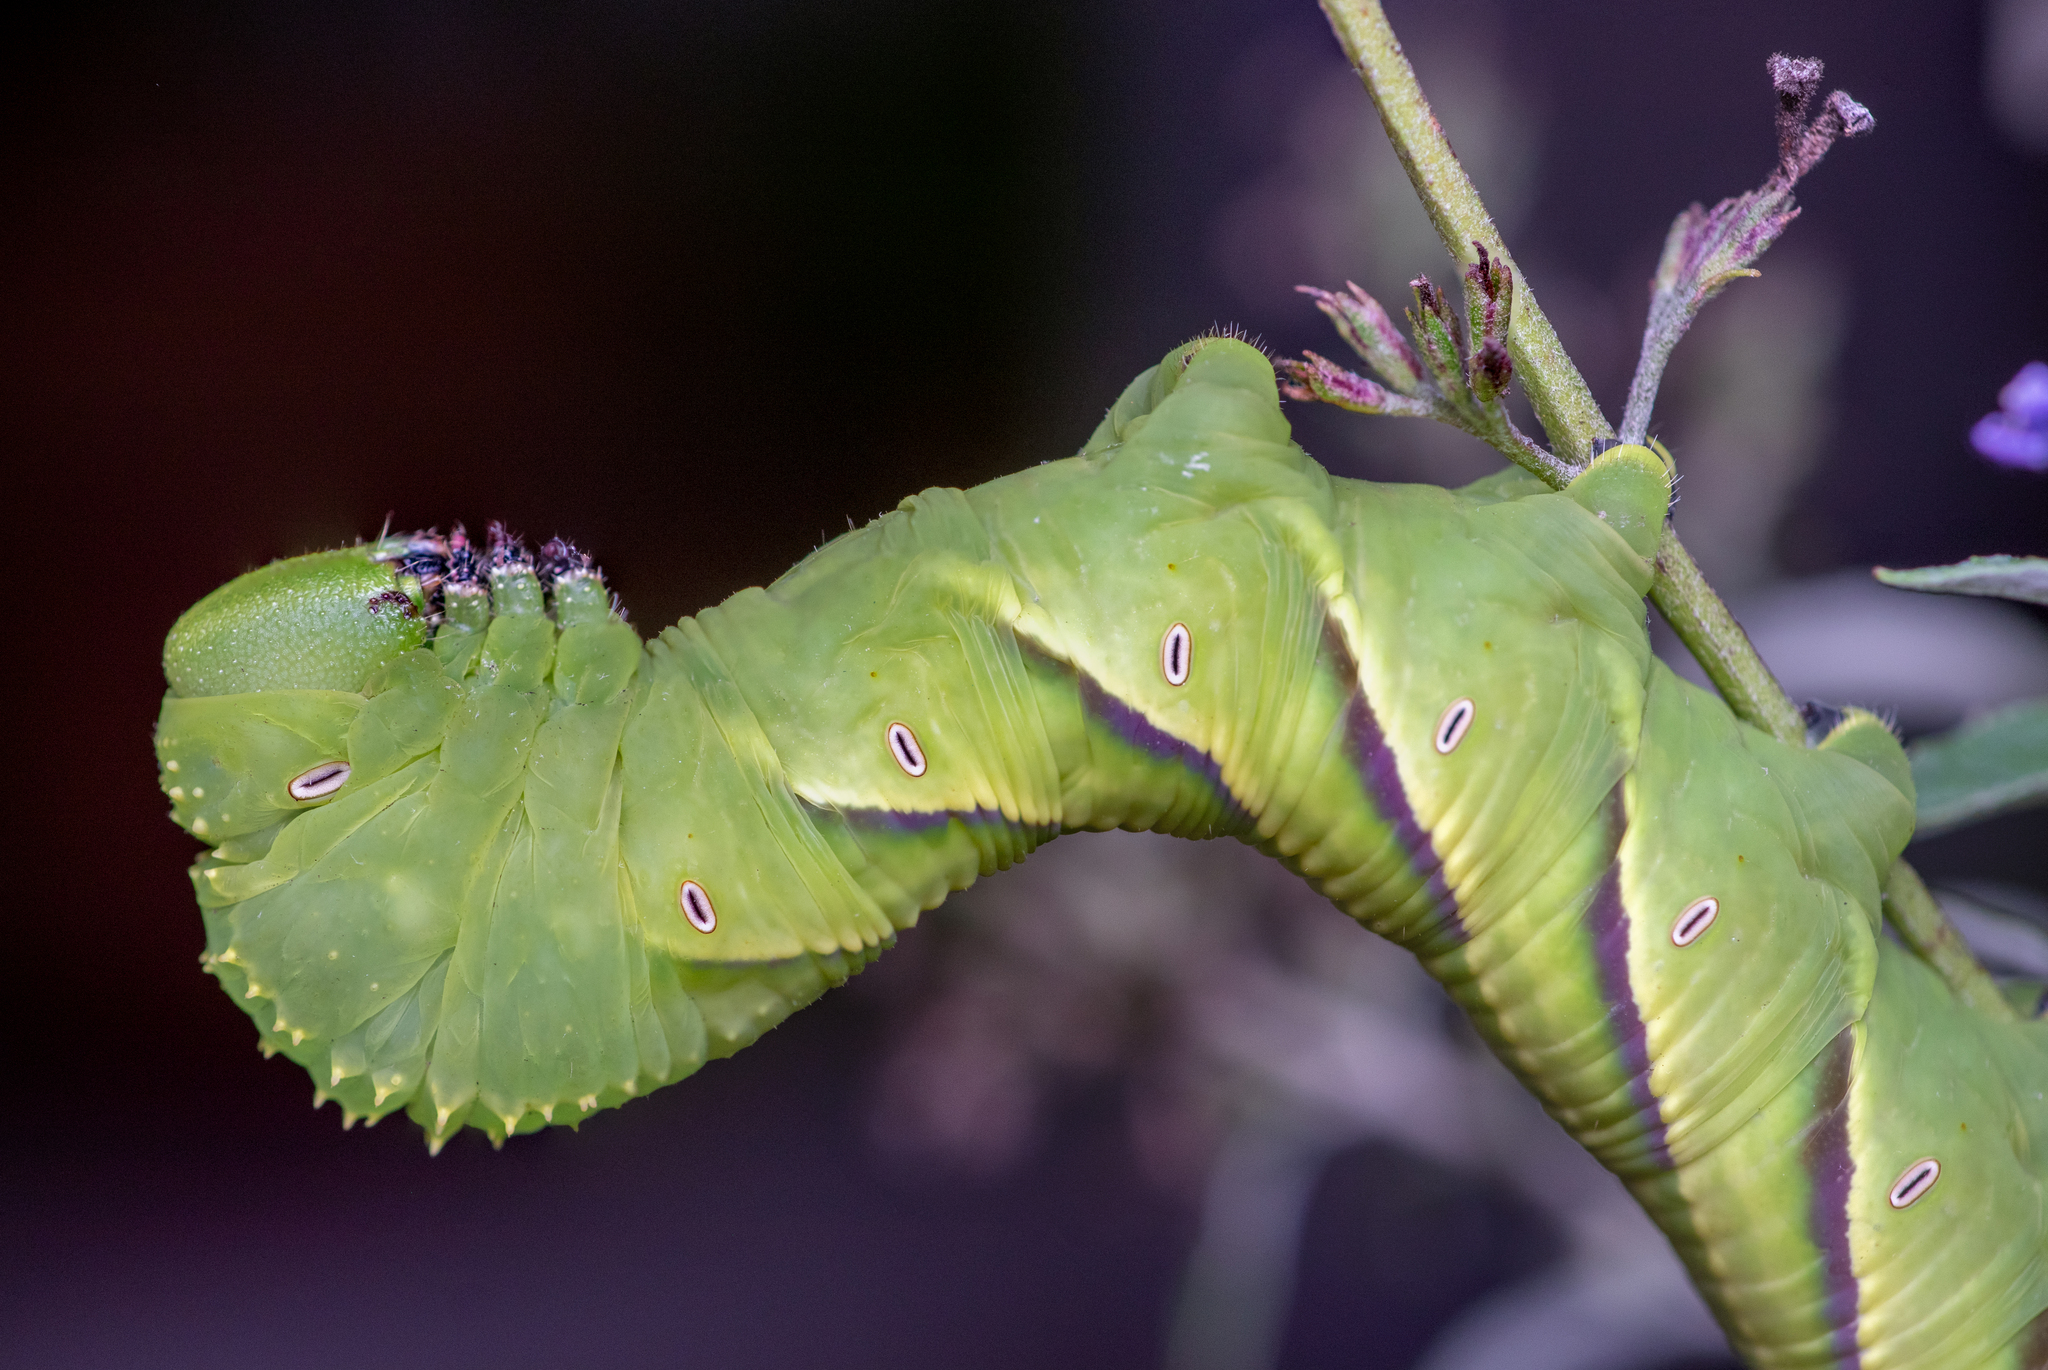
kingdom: Animalia
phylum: Arthropoda
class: Insecta
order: Lepidoptera
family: Sphingidae
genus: Manduca
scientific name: Manduca rustica
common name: Rustic sphinx
